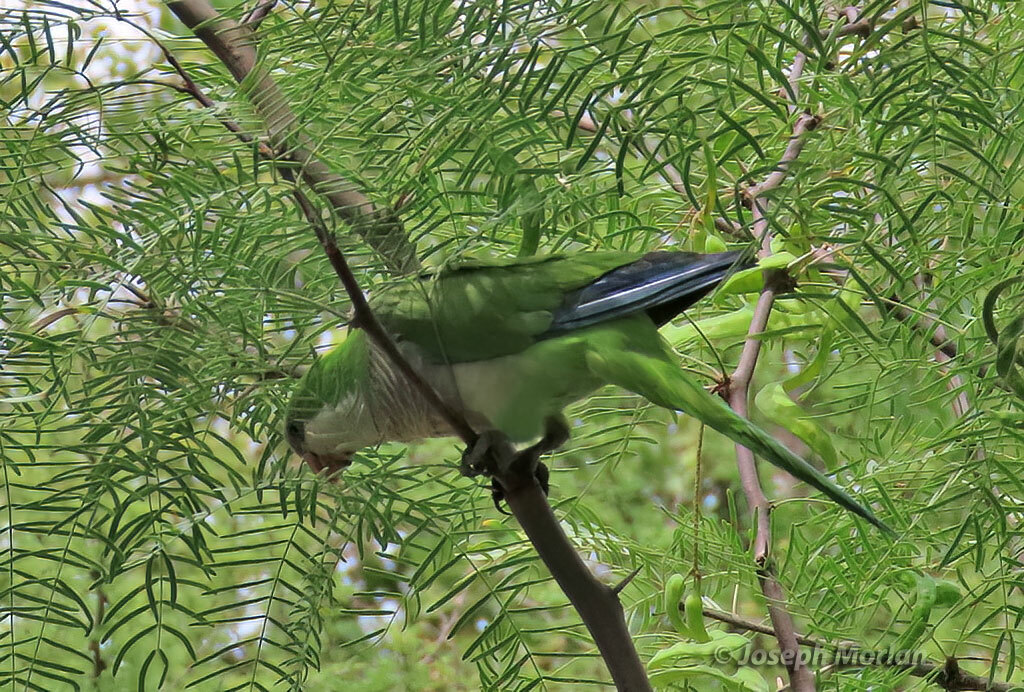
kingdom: Animalia
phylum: Chordata
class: Aves
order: Psittaciformes
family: Psittacidae
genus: Myiopsitta
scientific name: Myiopsitta monachus
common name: Monk parakeet
